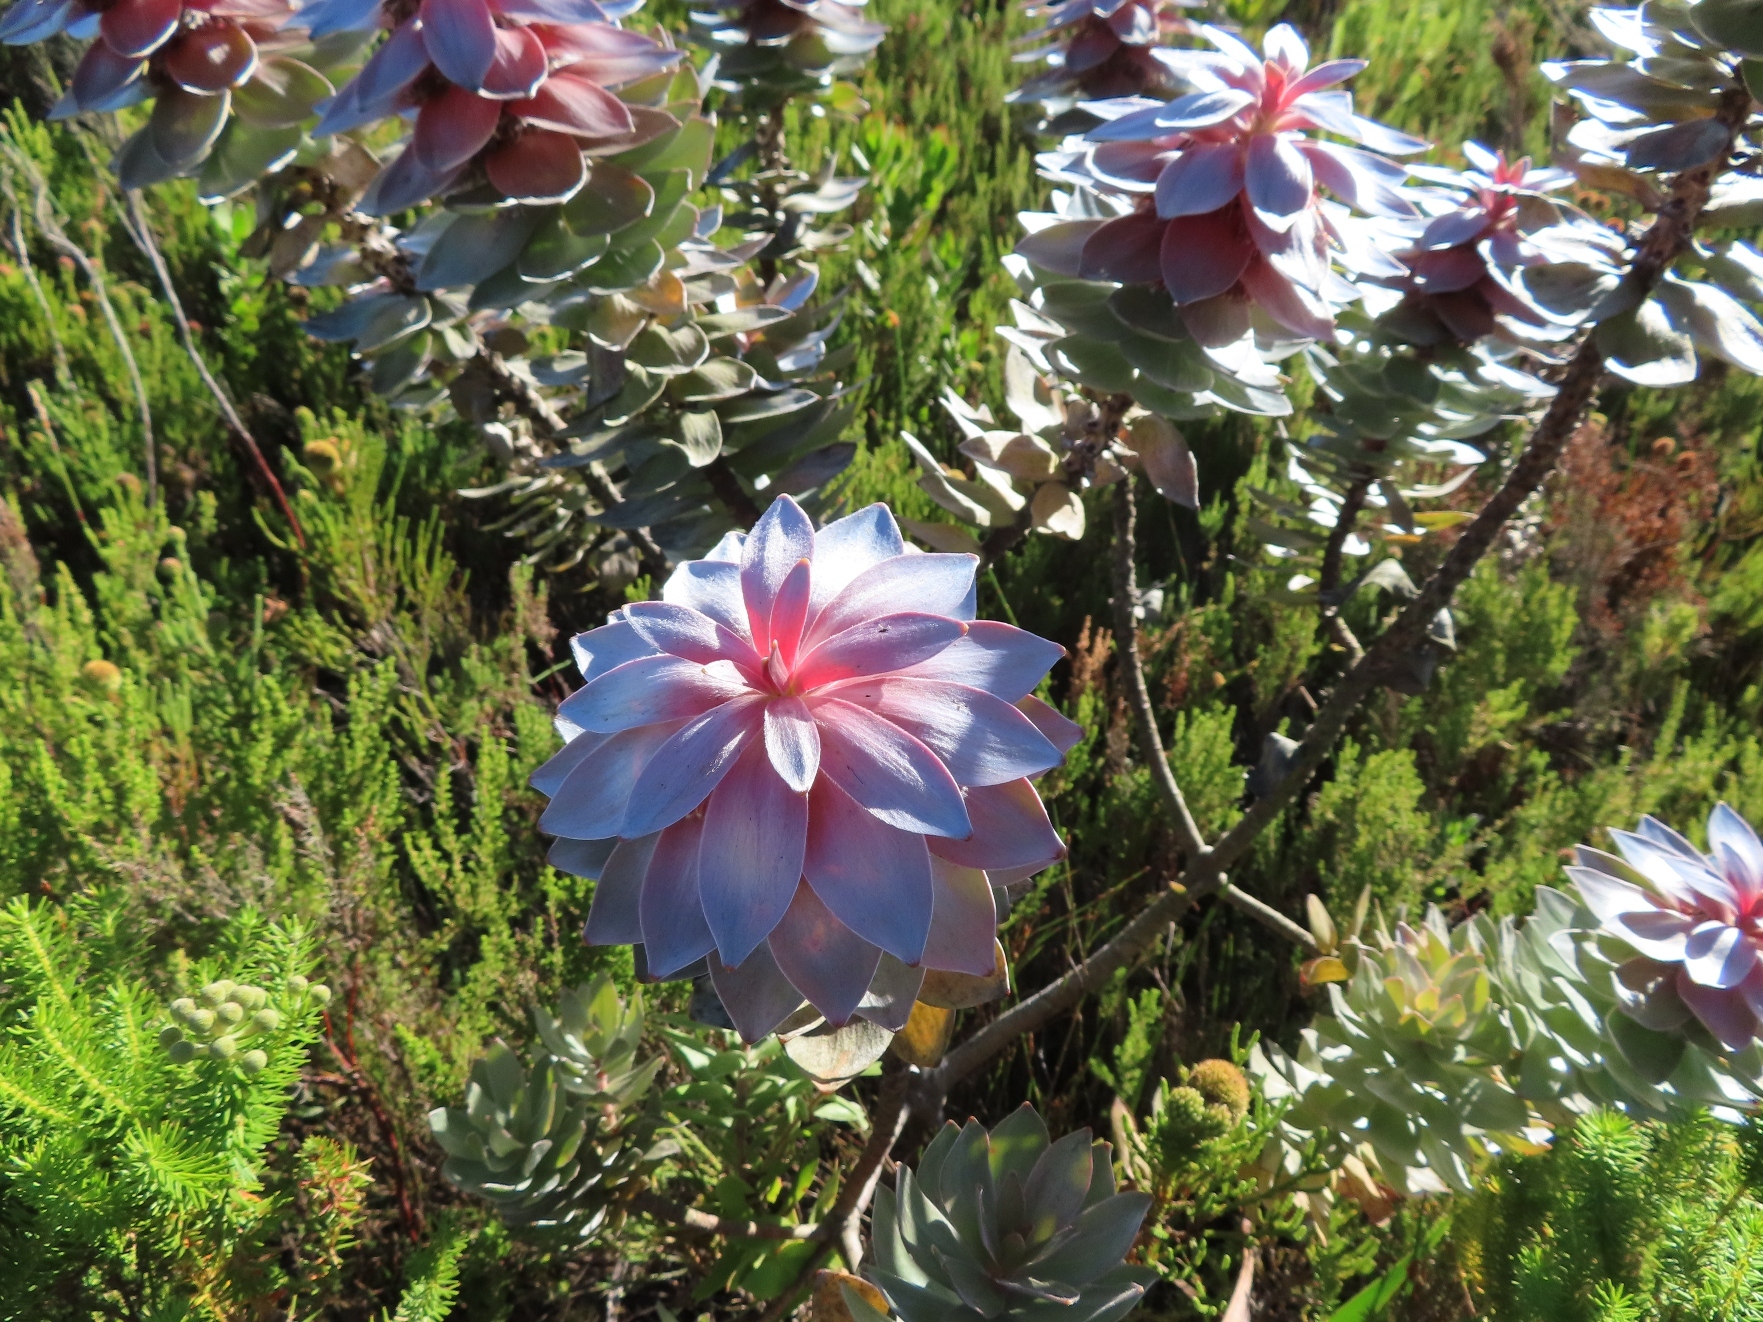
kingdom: Plantae
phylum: Tracheophyta
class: Magnoliopsida
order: Proteales
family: Proteaceae
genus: Mimetes
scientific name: Mimetes argenteus
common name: Silver pagoda
